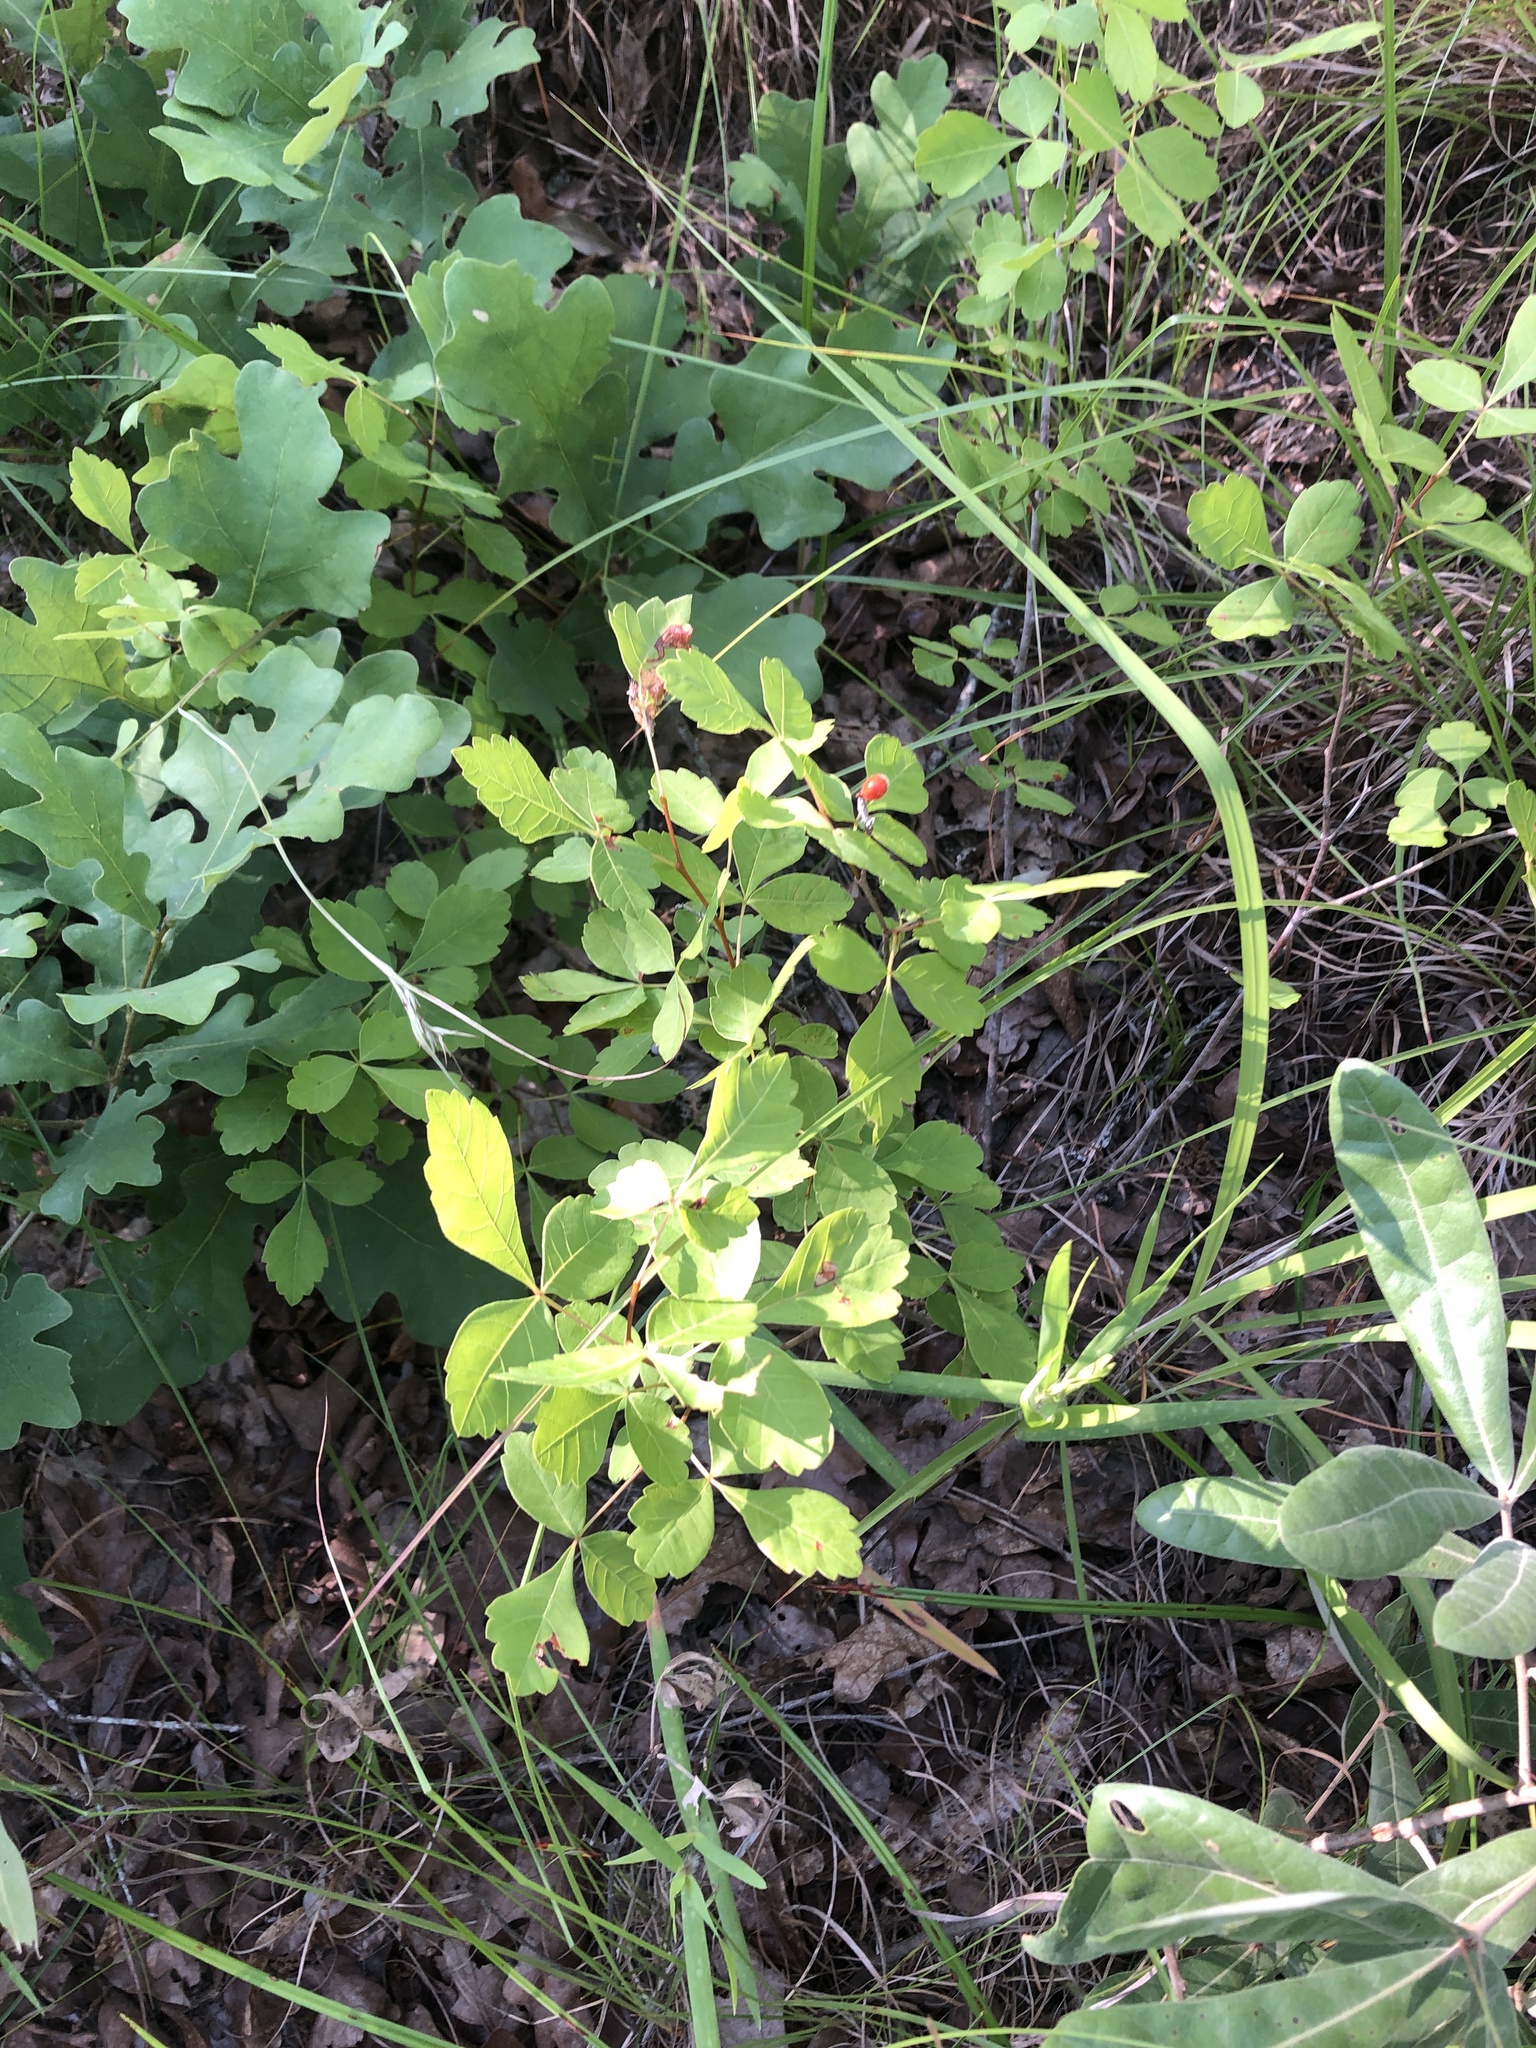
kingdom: Plantae
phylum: Tracheophyta
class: Magnoliopsida
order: Sapindales
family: Anacardiaceae
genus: Rhus
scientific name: Rhus aromatica
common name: Aromatic sumac
